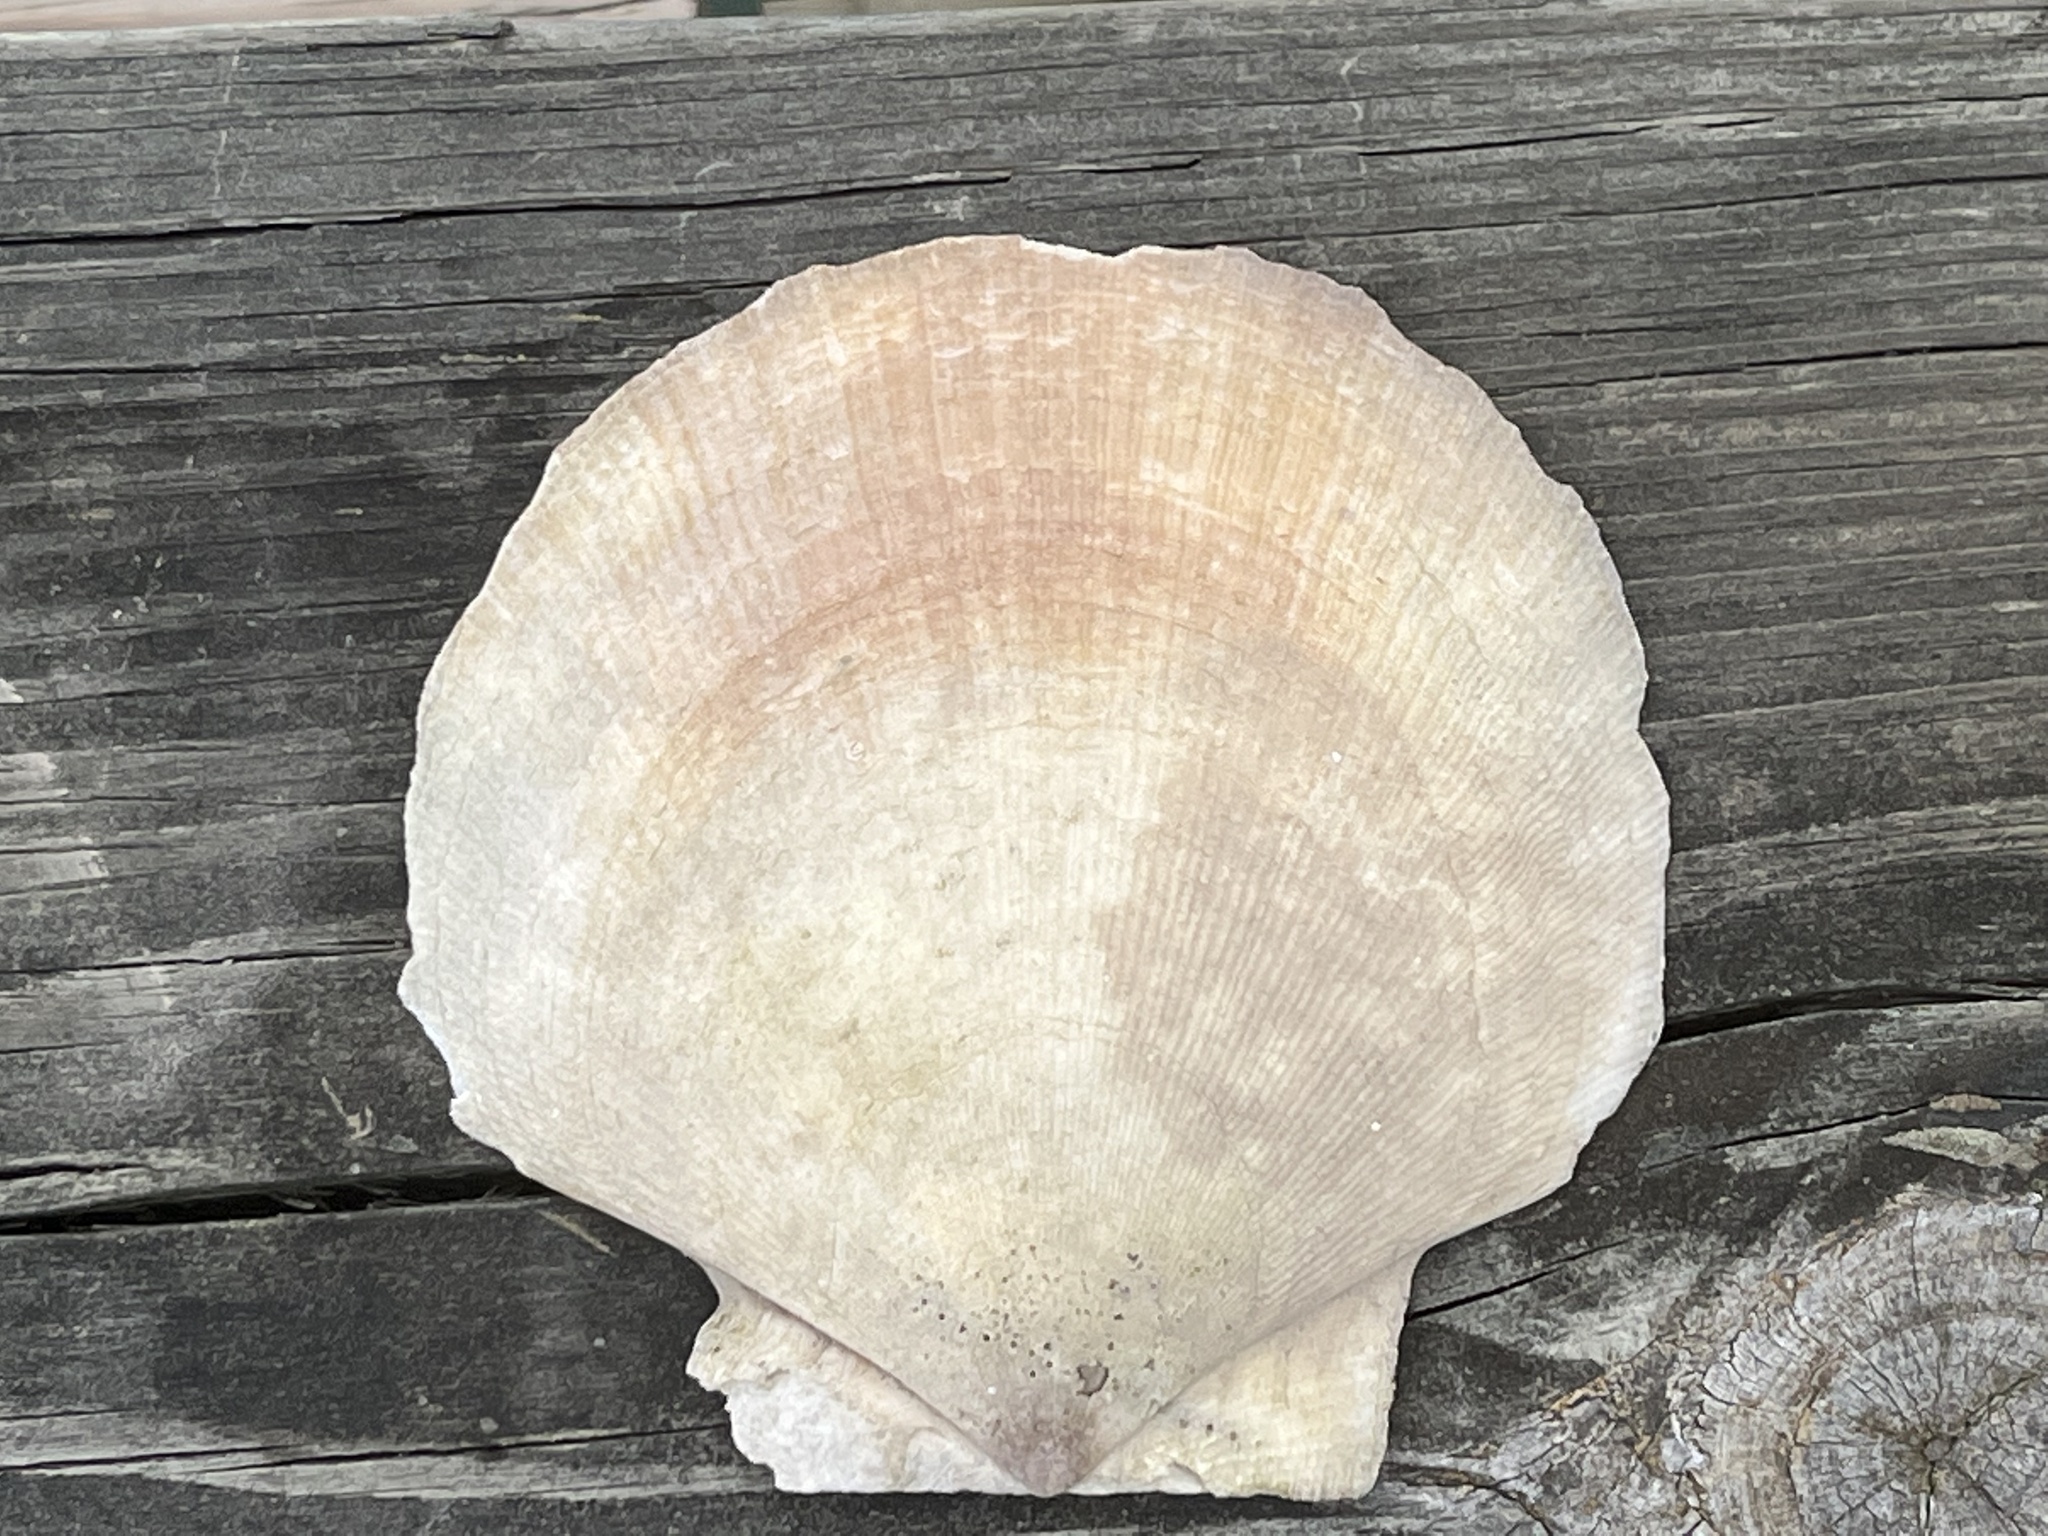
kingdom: Animalia
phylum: Mollusca
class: Bivalvia
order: Pectinida
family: Pectinidae
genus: Placopecten
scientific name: Placopecten magellanicus
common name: American sea scallop
